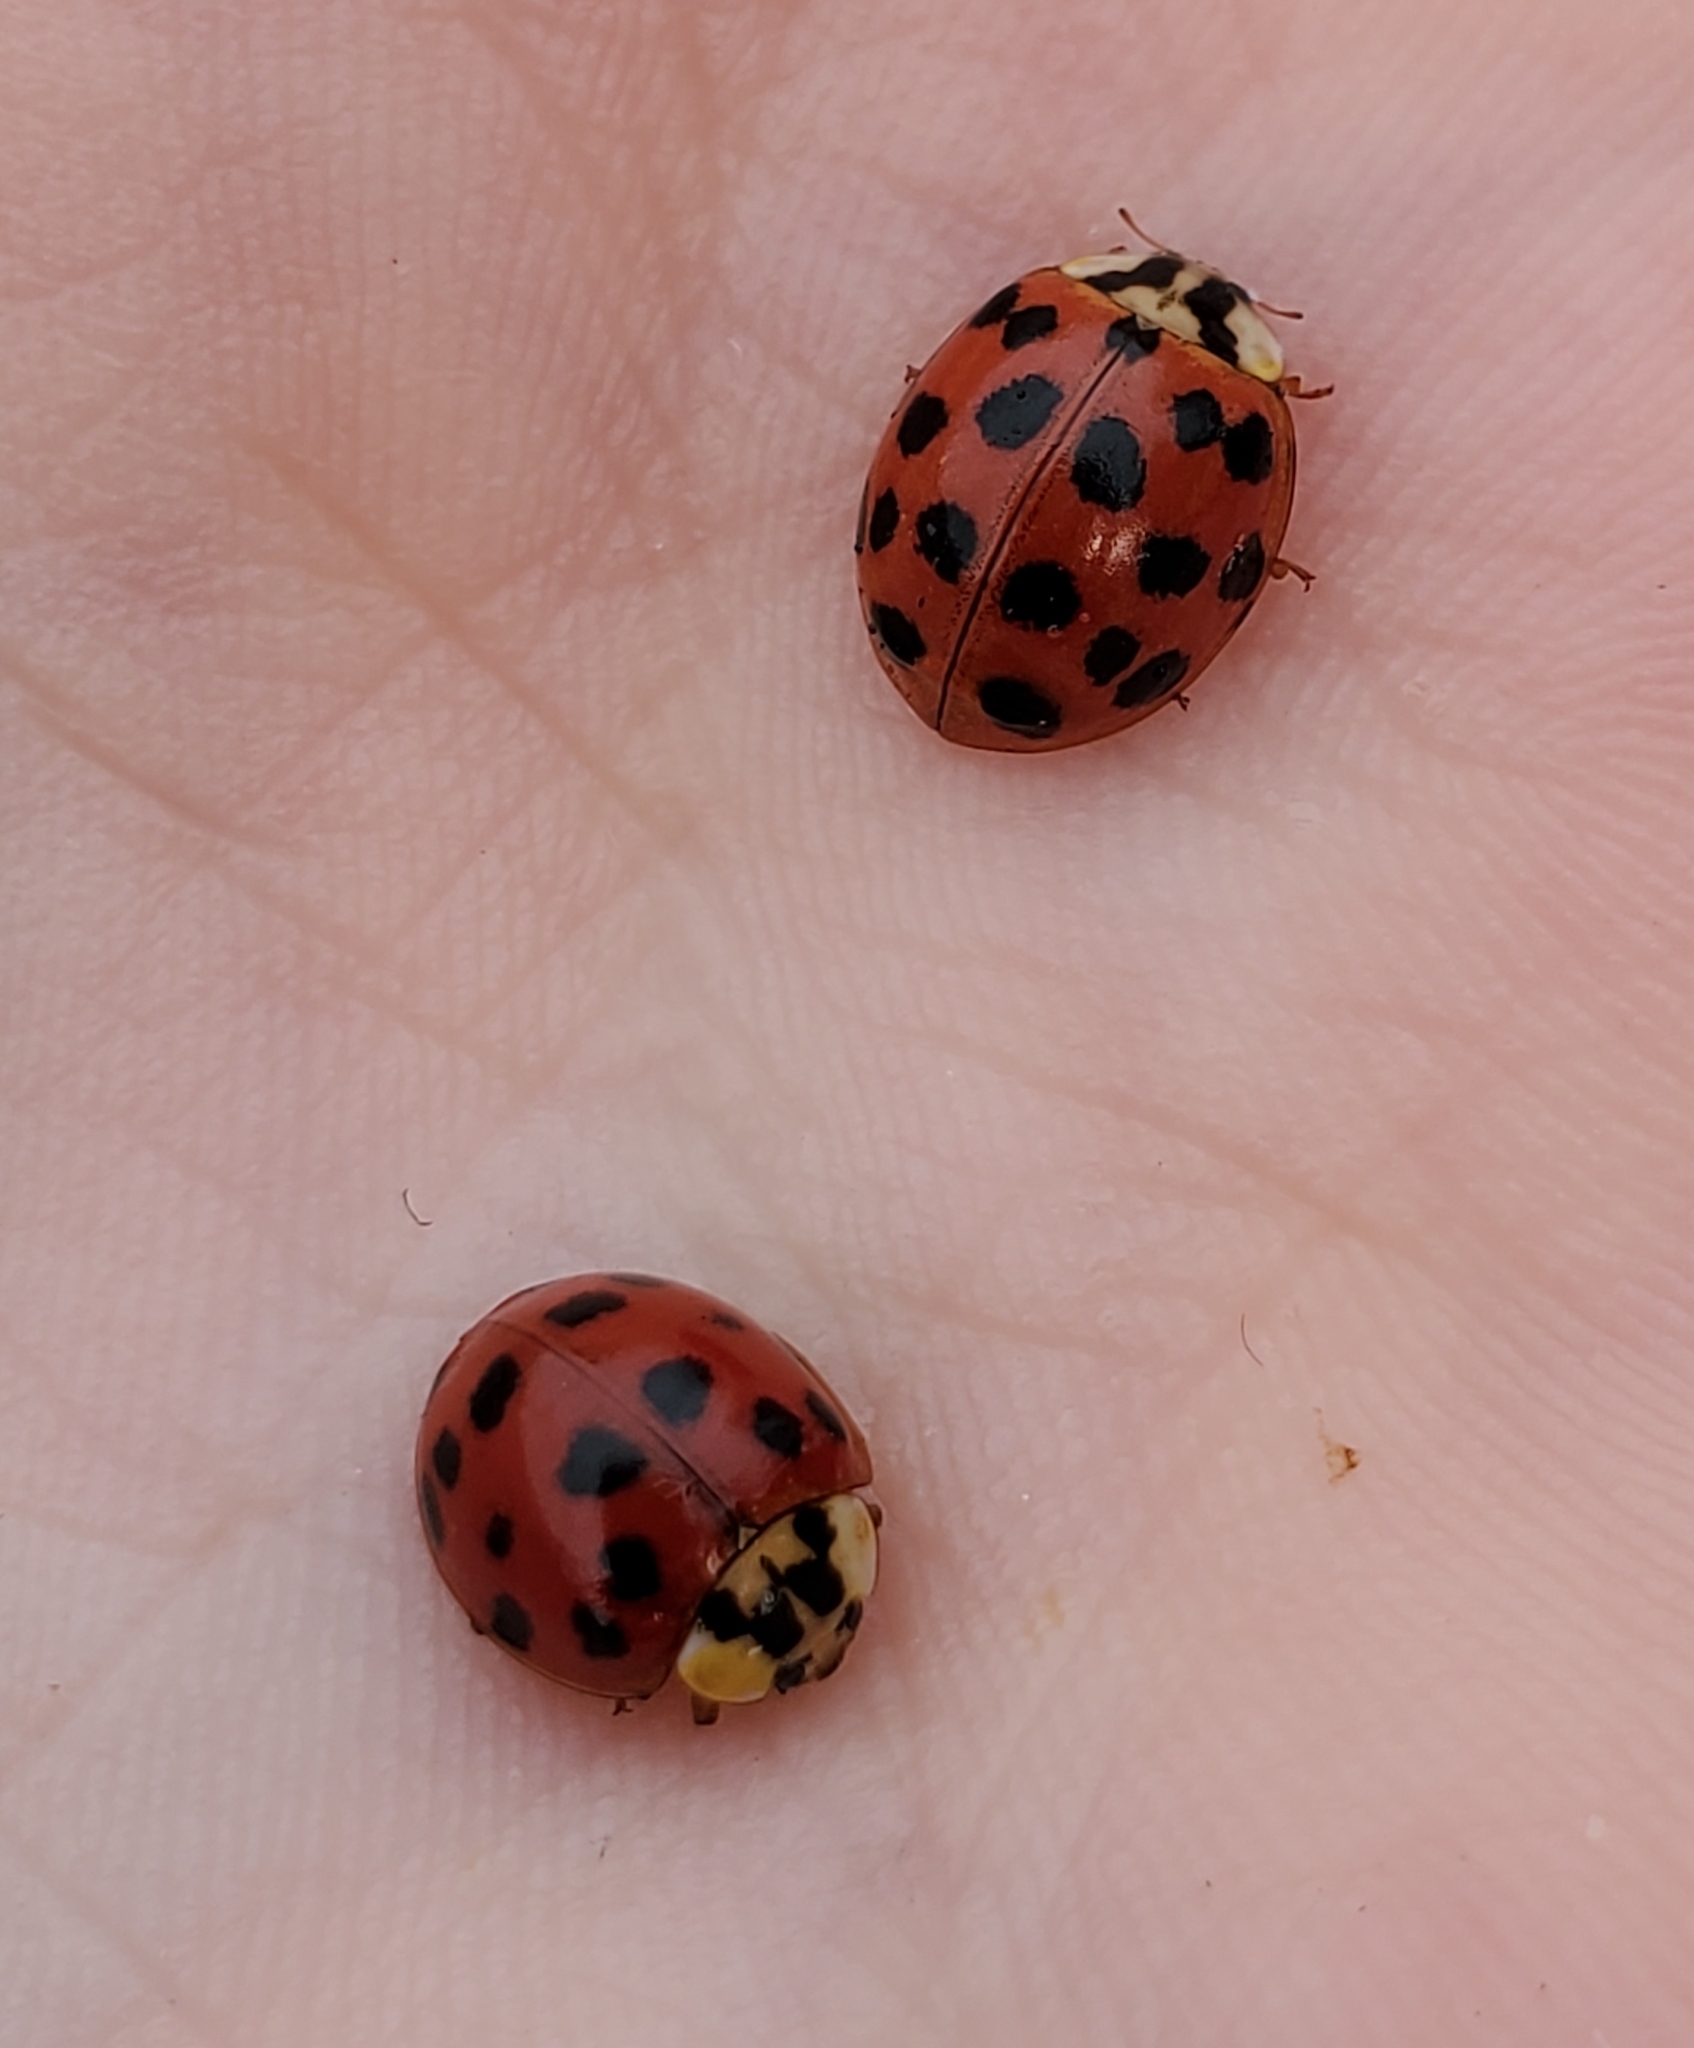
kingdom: Animalia
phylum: Arthropoda
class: Insecta
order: Coleoptera
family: Coccinellidae
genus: Harmonia
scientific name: Harmonia axyridis
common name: Harlequin ladybird
